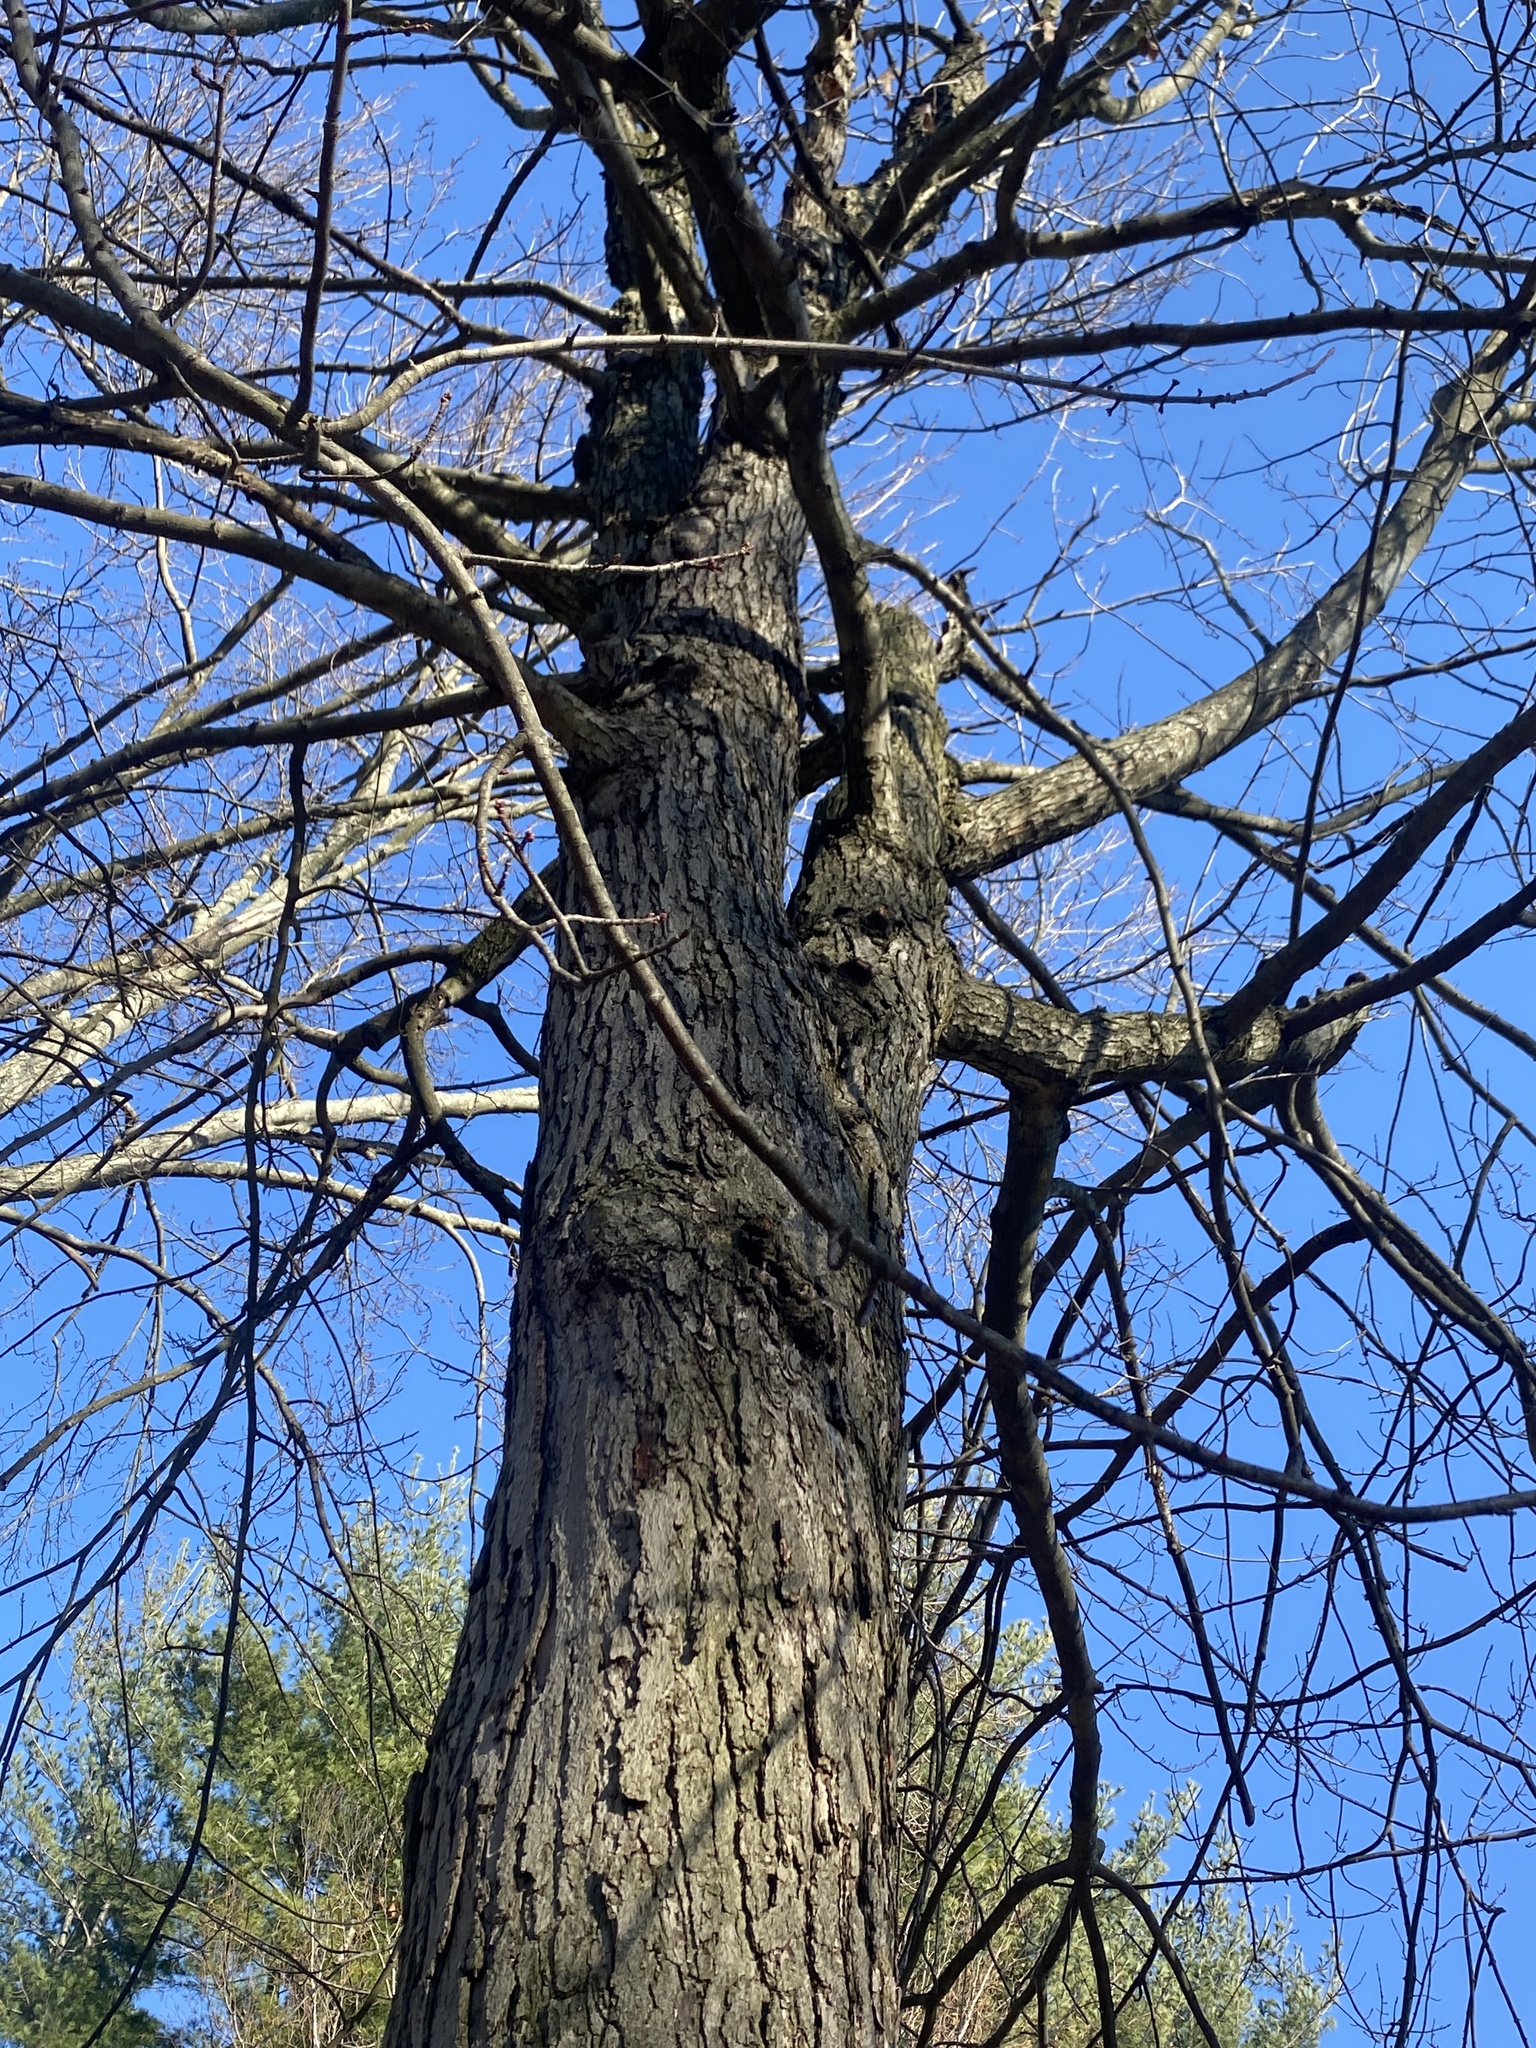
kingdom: Plantae
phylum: Tracheophyta
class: Magnoliopsida
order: Sapindales
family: Sapindaceae
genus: Acer
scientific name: Acer rubrum
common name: Red maple
